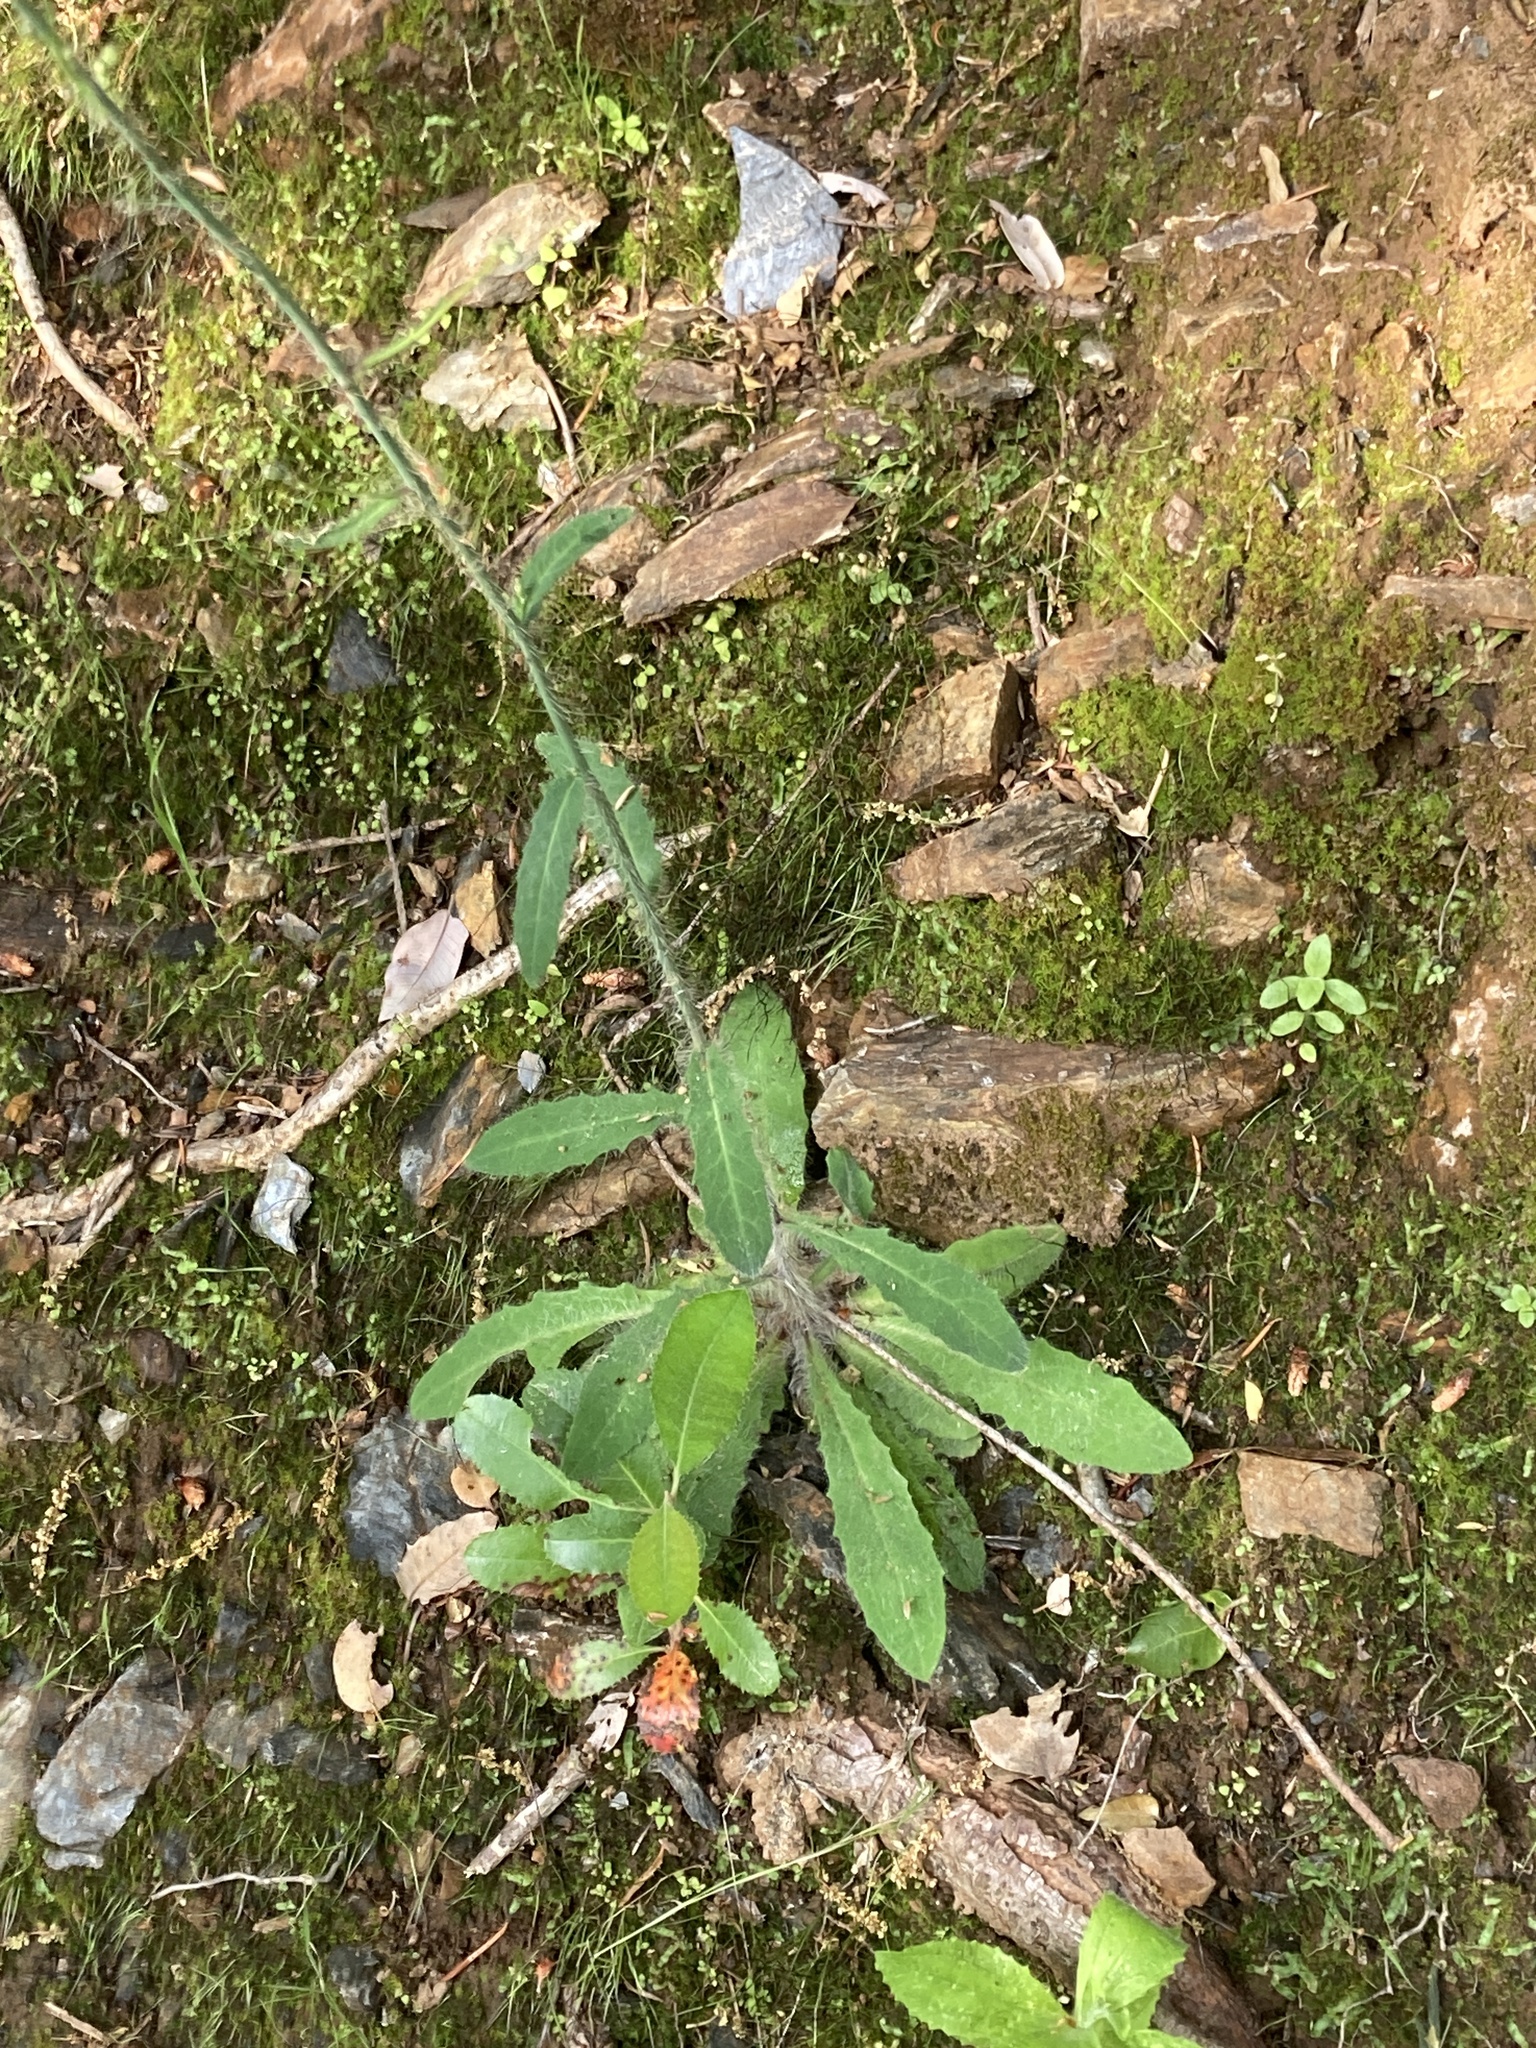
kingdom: Plantae
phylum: Tracheophyta
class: Magnoliopsida
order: Asterales
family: Asteraceae
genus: Hieracium
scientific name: Hieracium albiflorum
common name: White hawkweed
